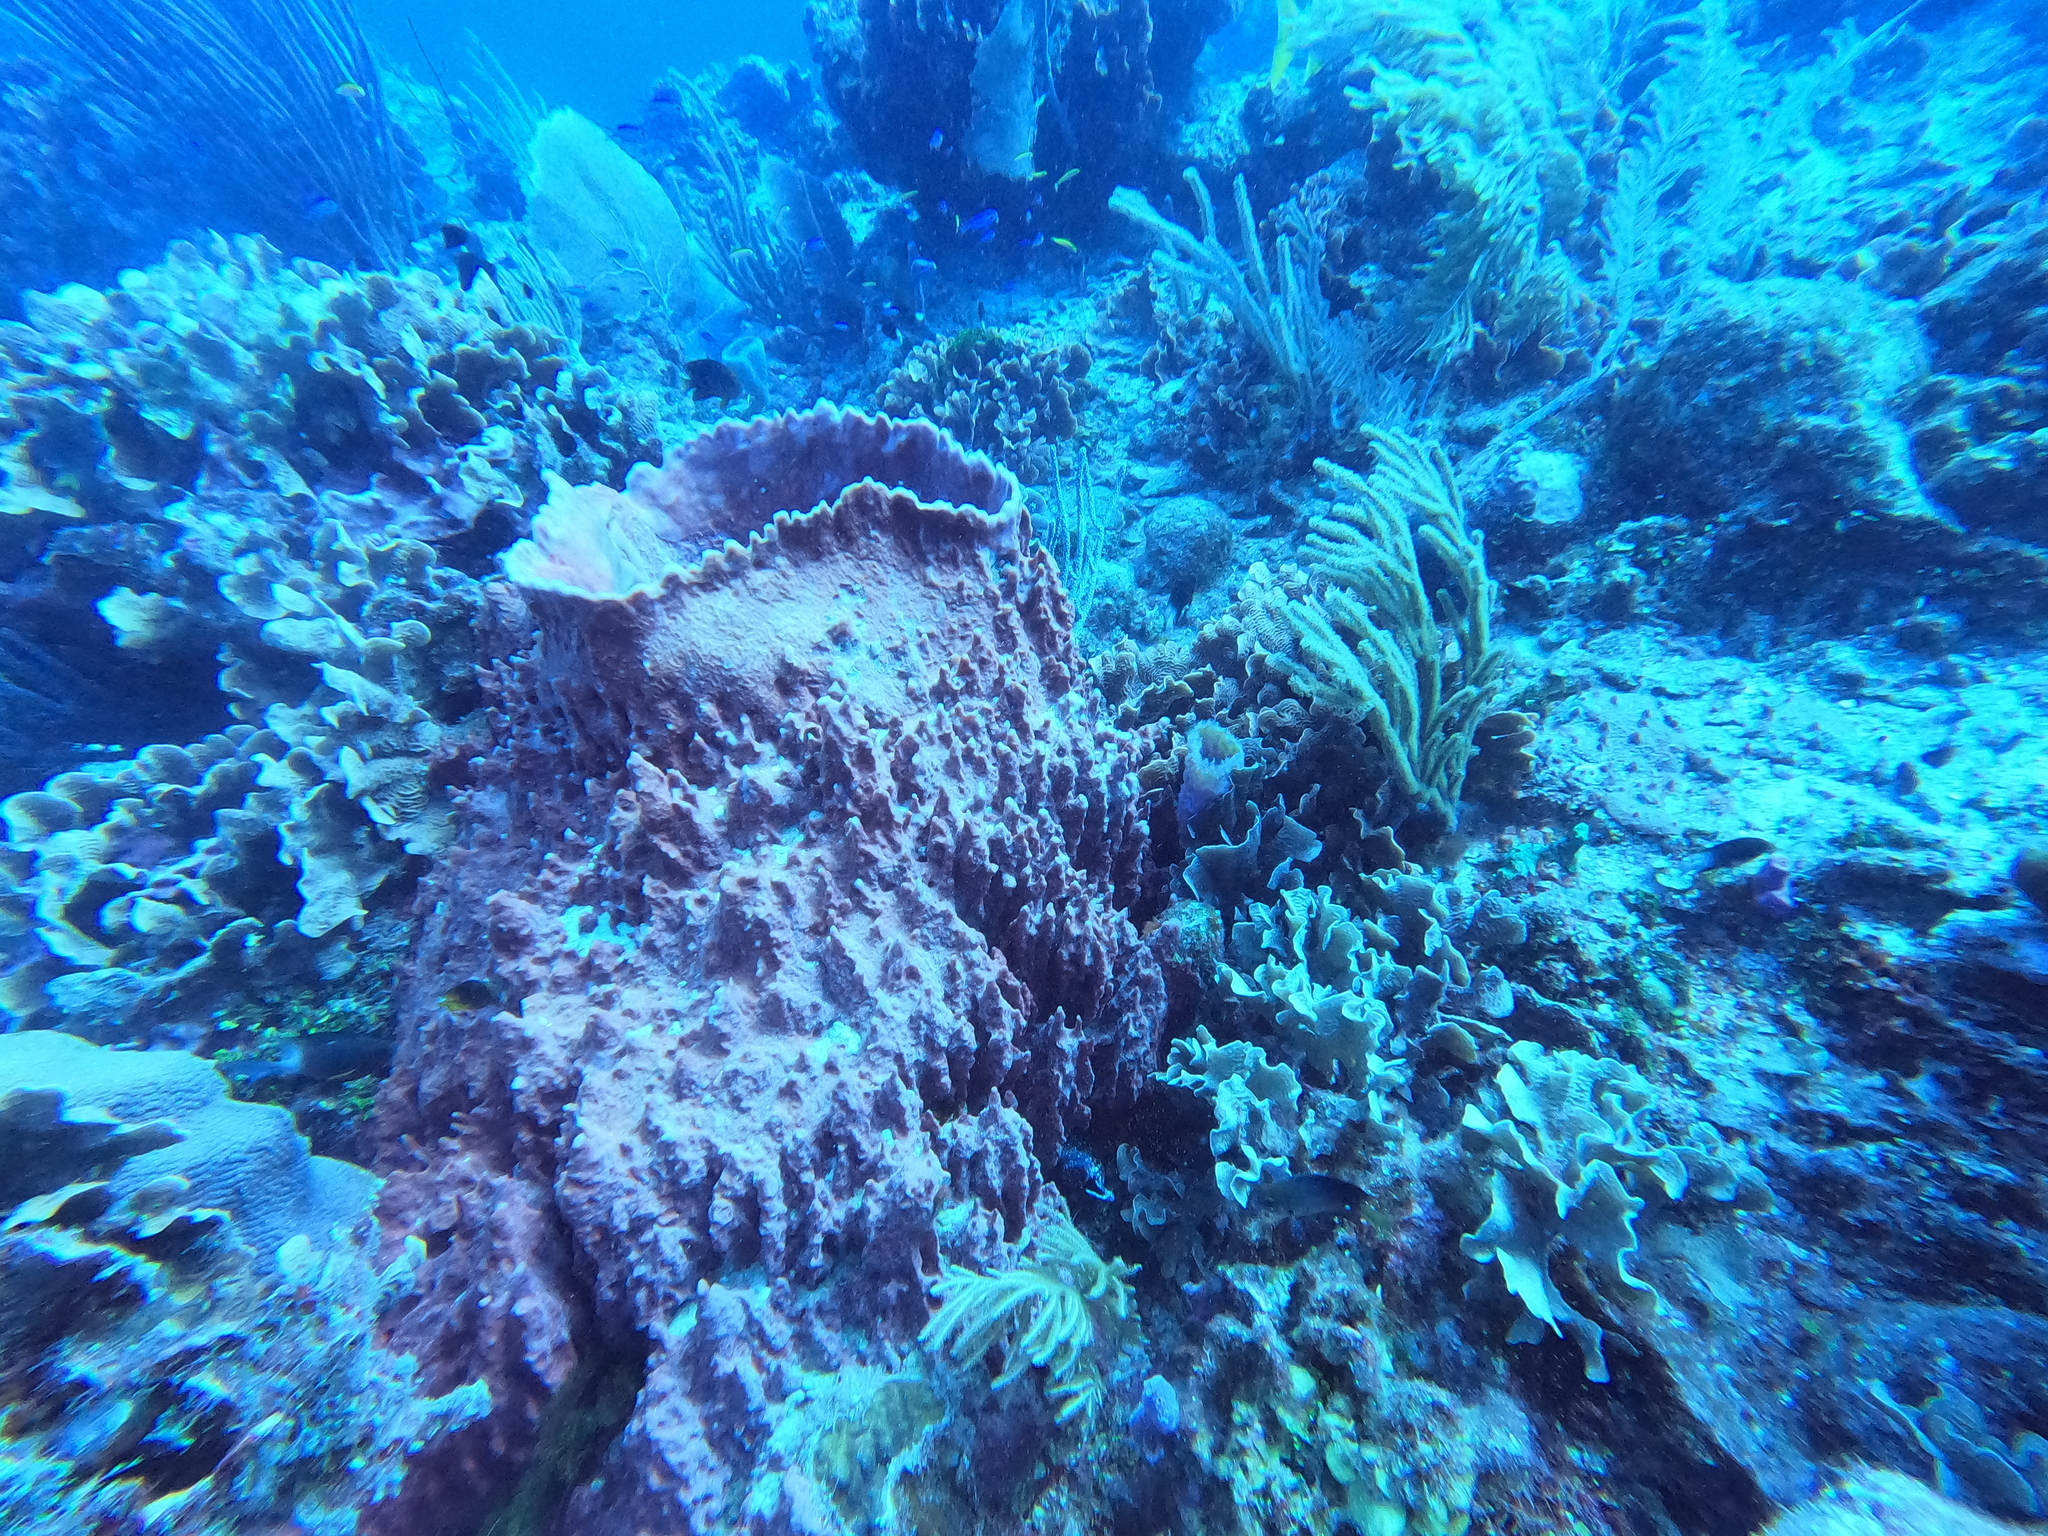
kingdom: Animalia
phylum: Porifera
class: Demospongiae
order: Haplosclerida
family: Petrosiidae
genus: Xestospongia
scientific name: Xestospongia muta
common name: Giant barrel sponge
